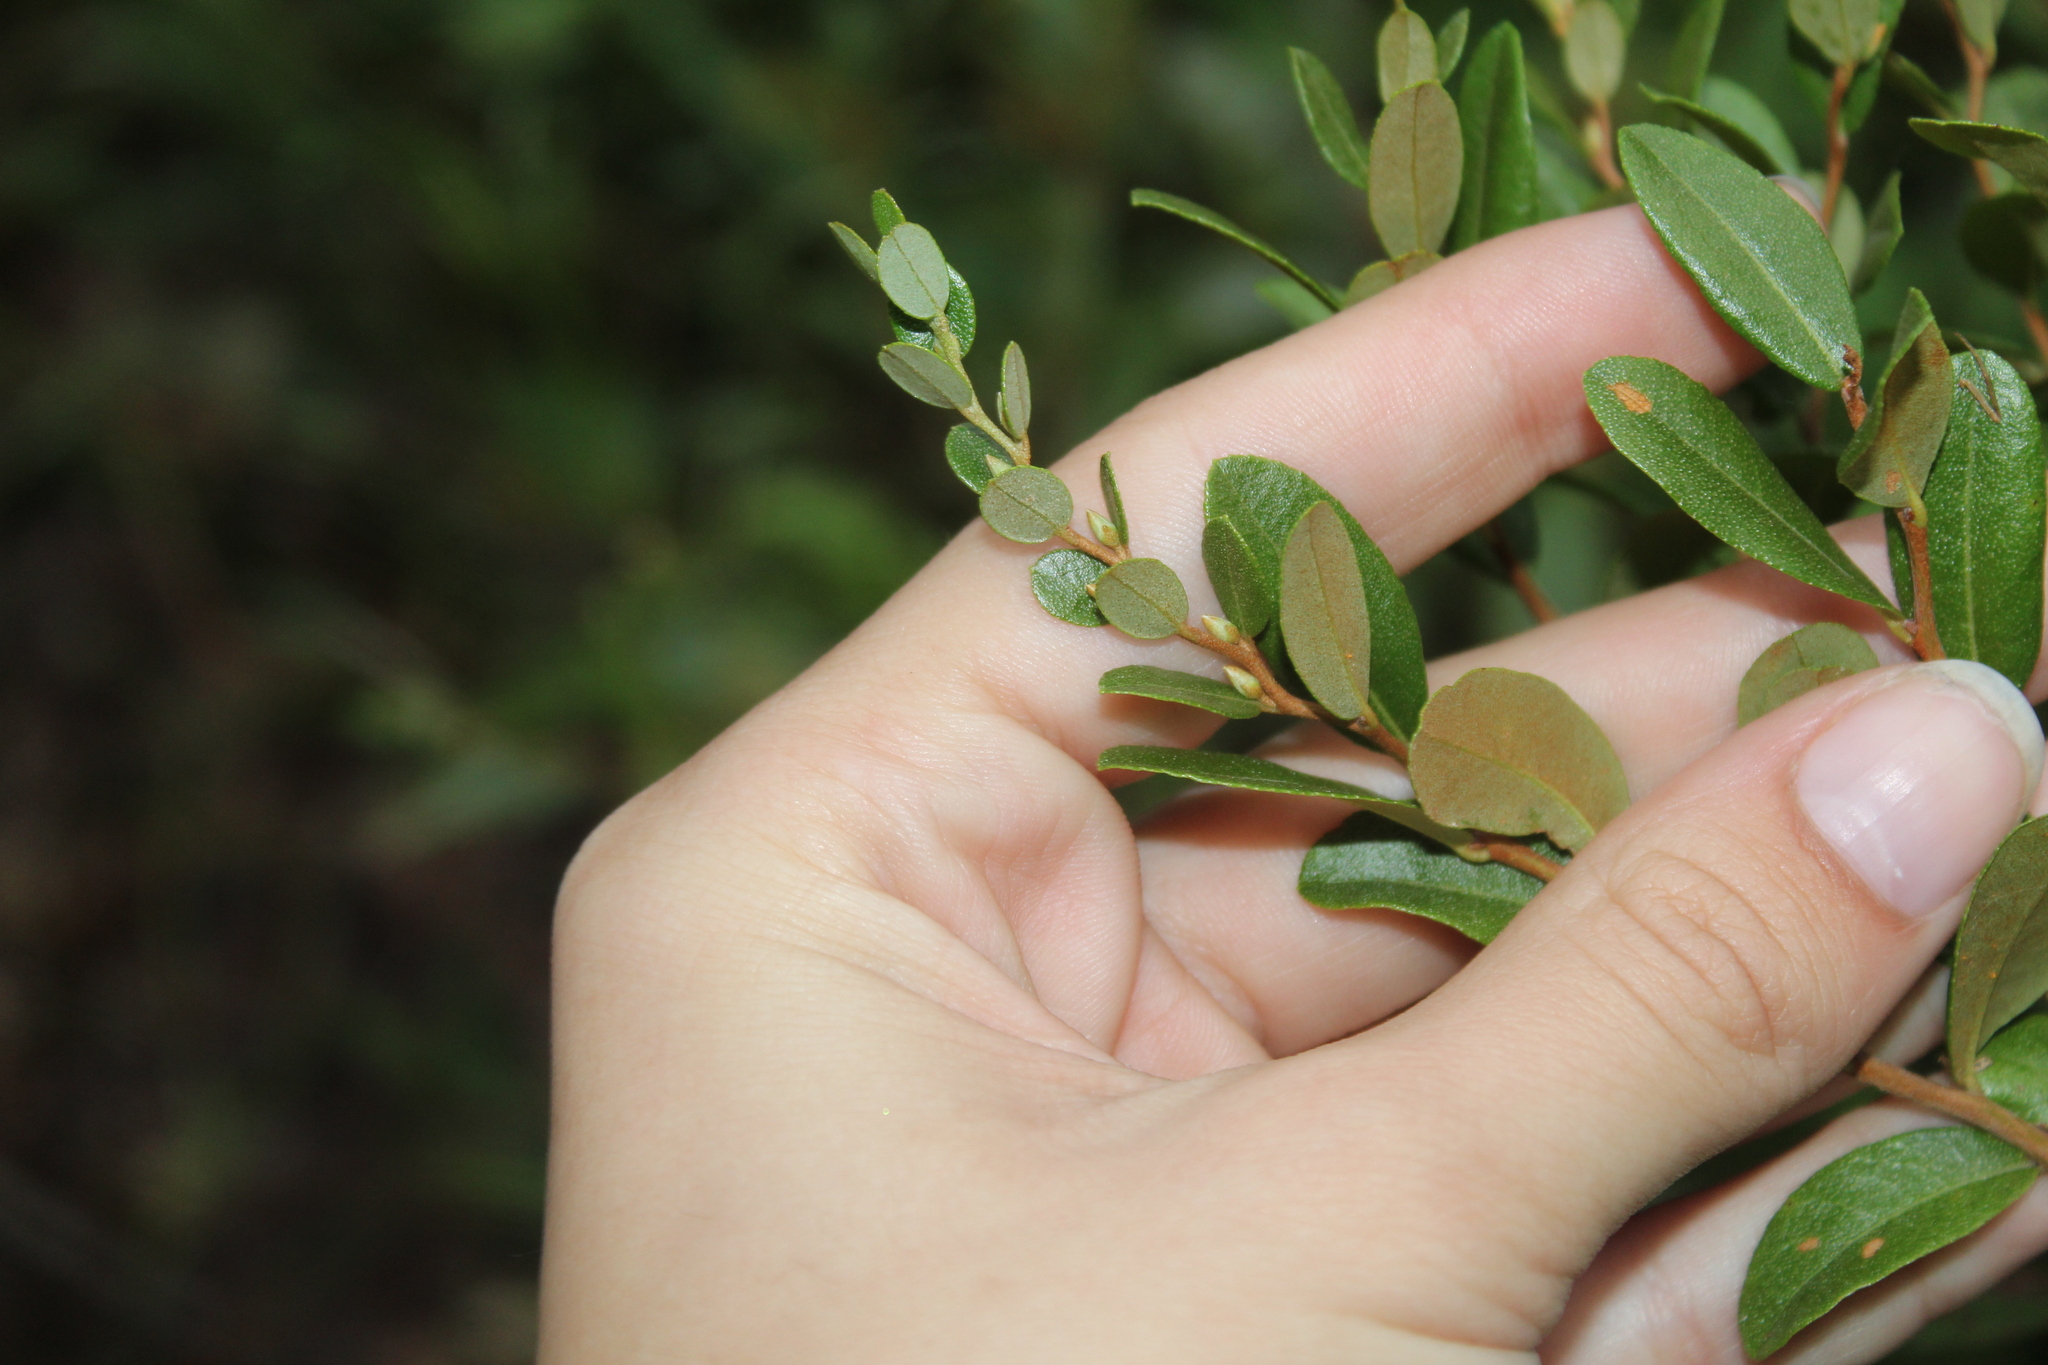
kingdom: Plantae
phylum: Tracheophyta
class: Magnoliopsida
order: Ericales
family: Ericaceae
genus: Chamaedaphne
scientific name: Chamaedaphne calyculata
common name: Leatherleaf
